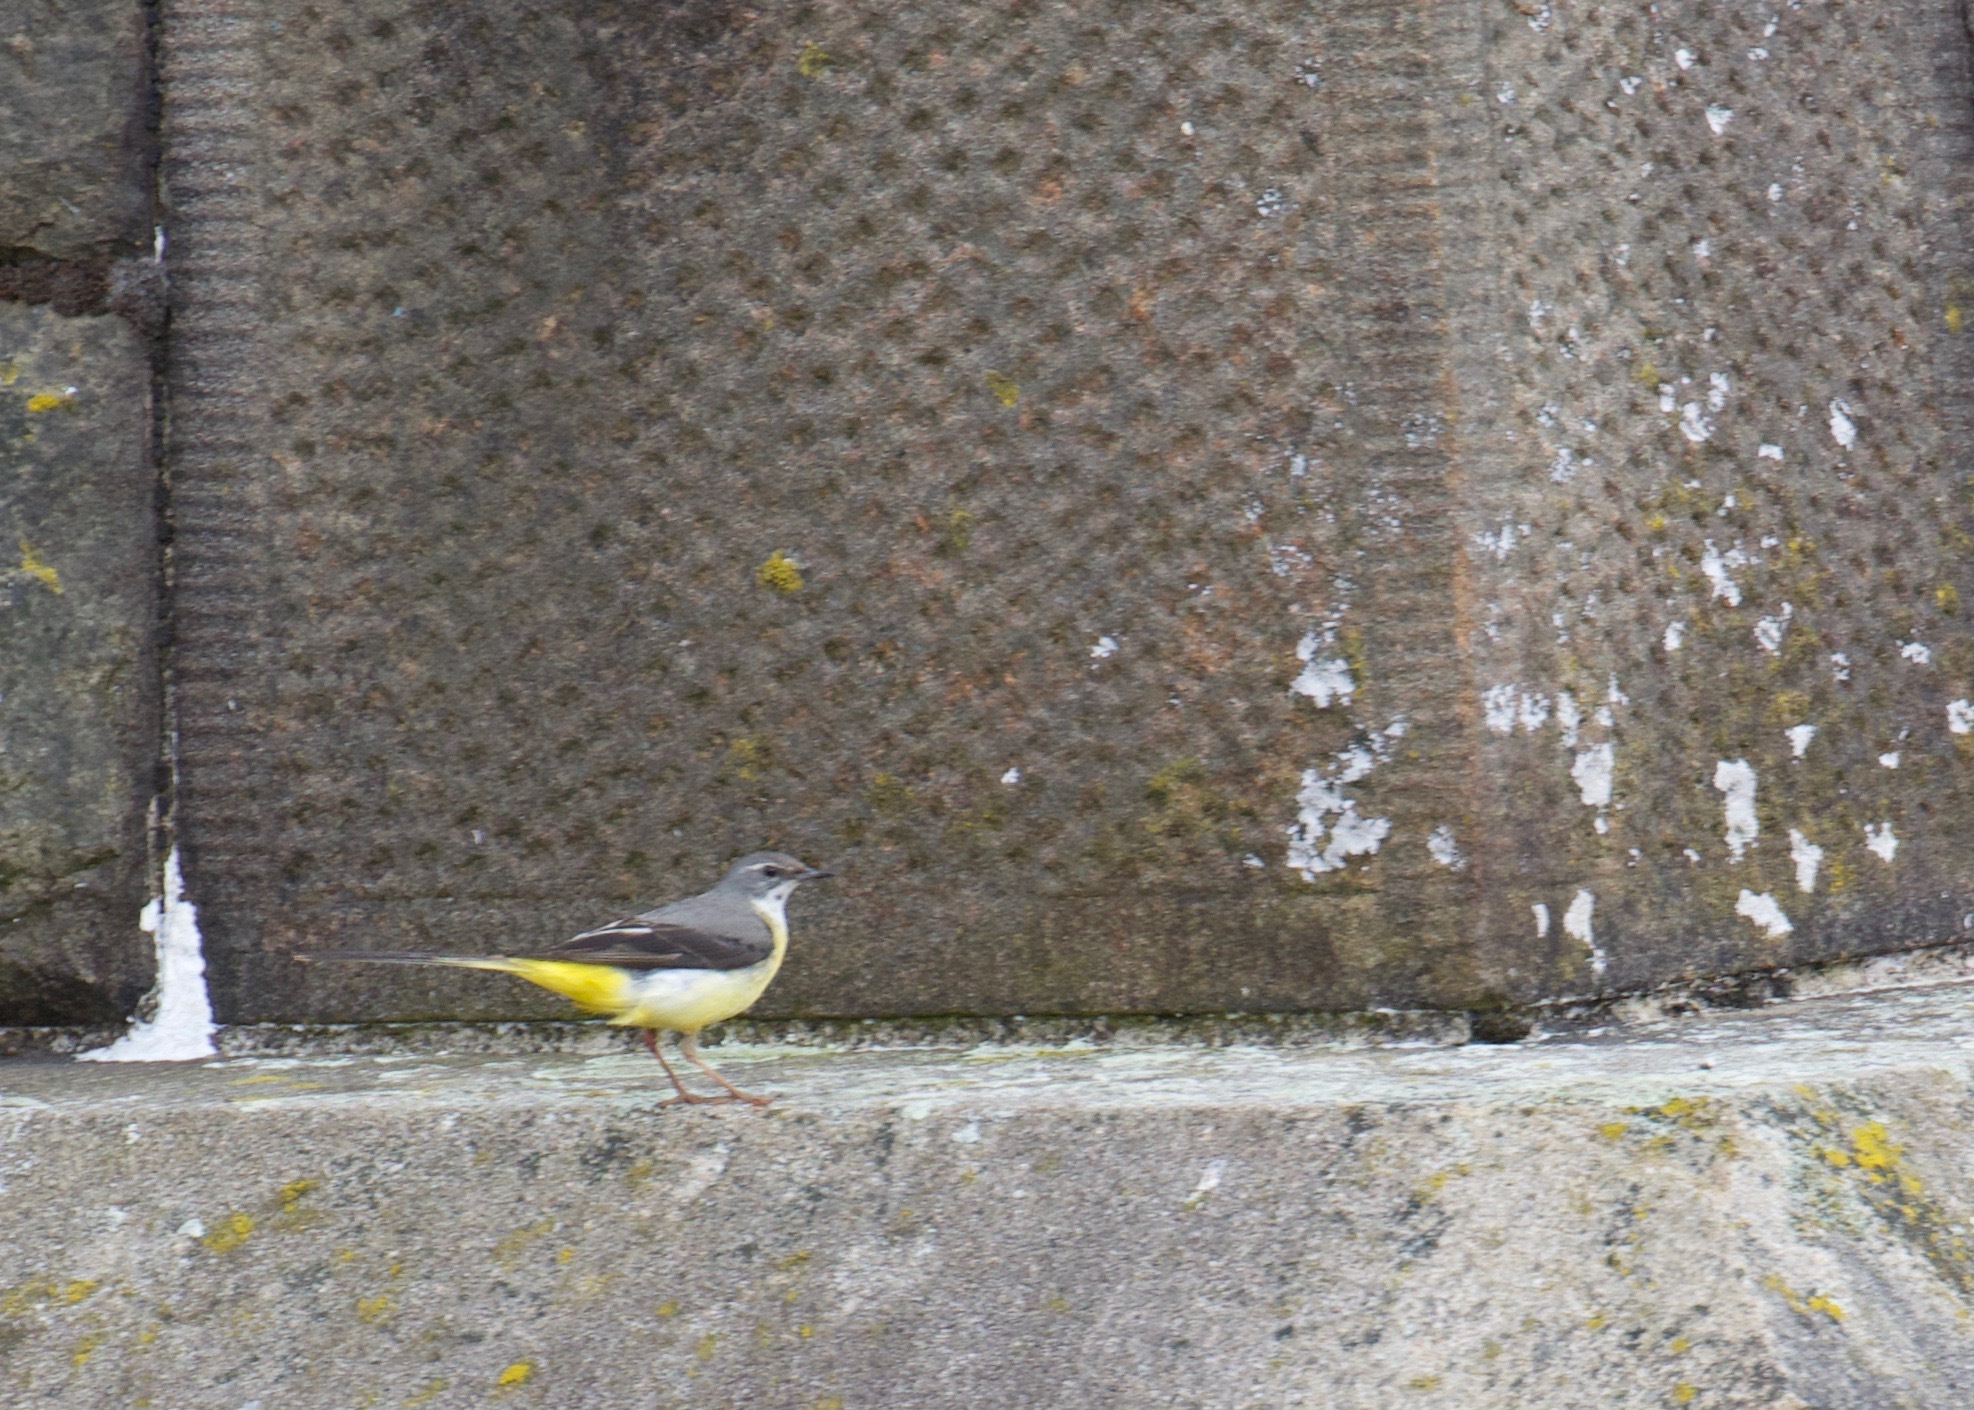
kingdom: Animalia
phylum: Chordata
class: Aves
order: Passeriformes
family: Motacillidae
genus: Motacilla
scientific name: Motacilla cinerea
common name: Grey wagtail
